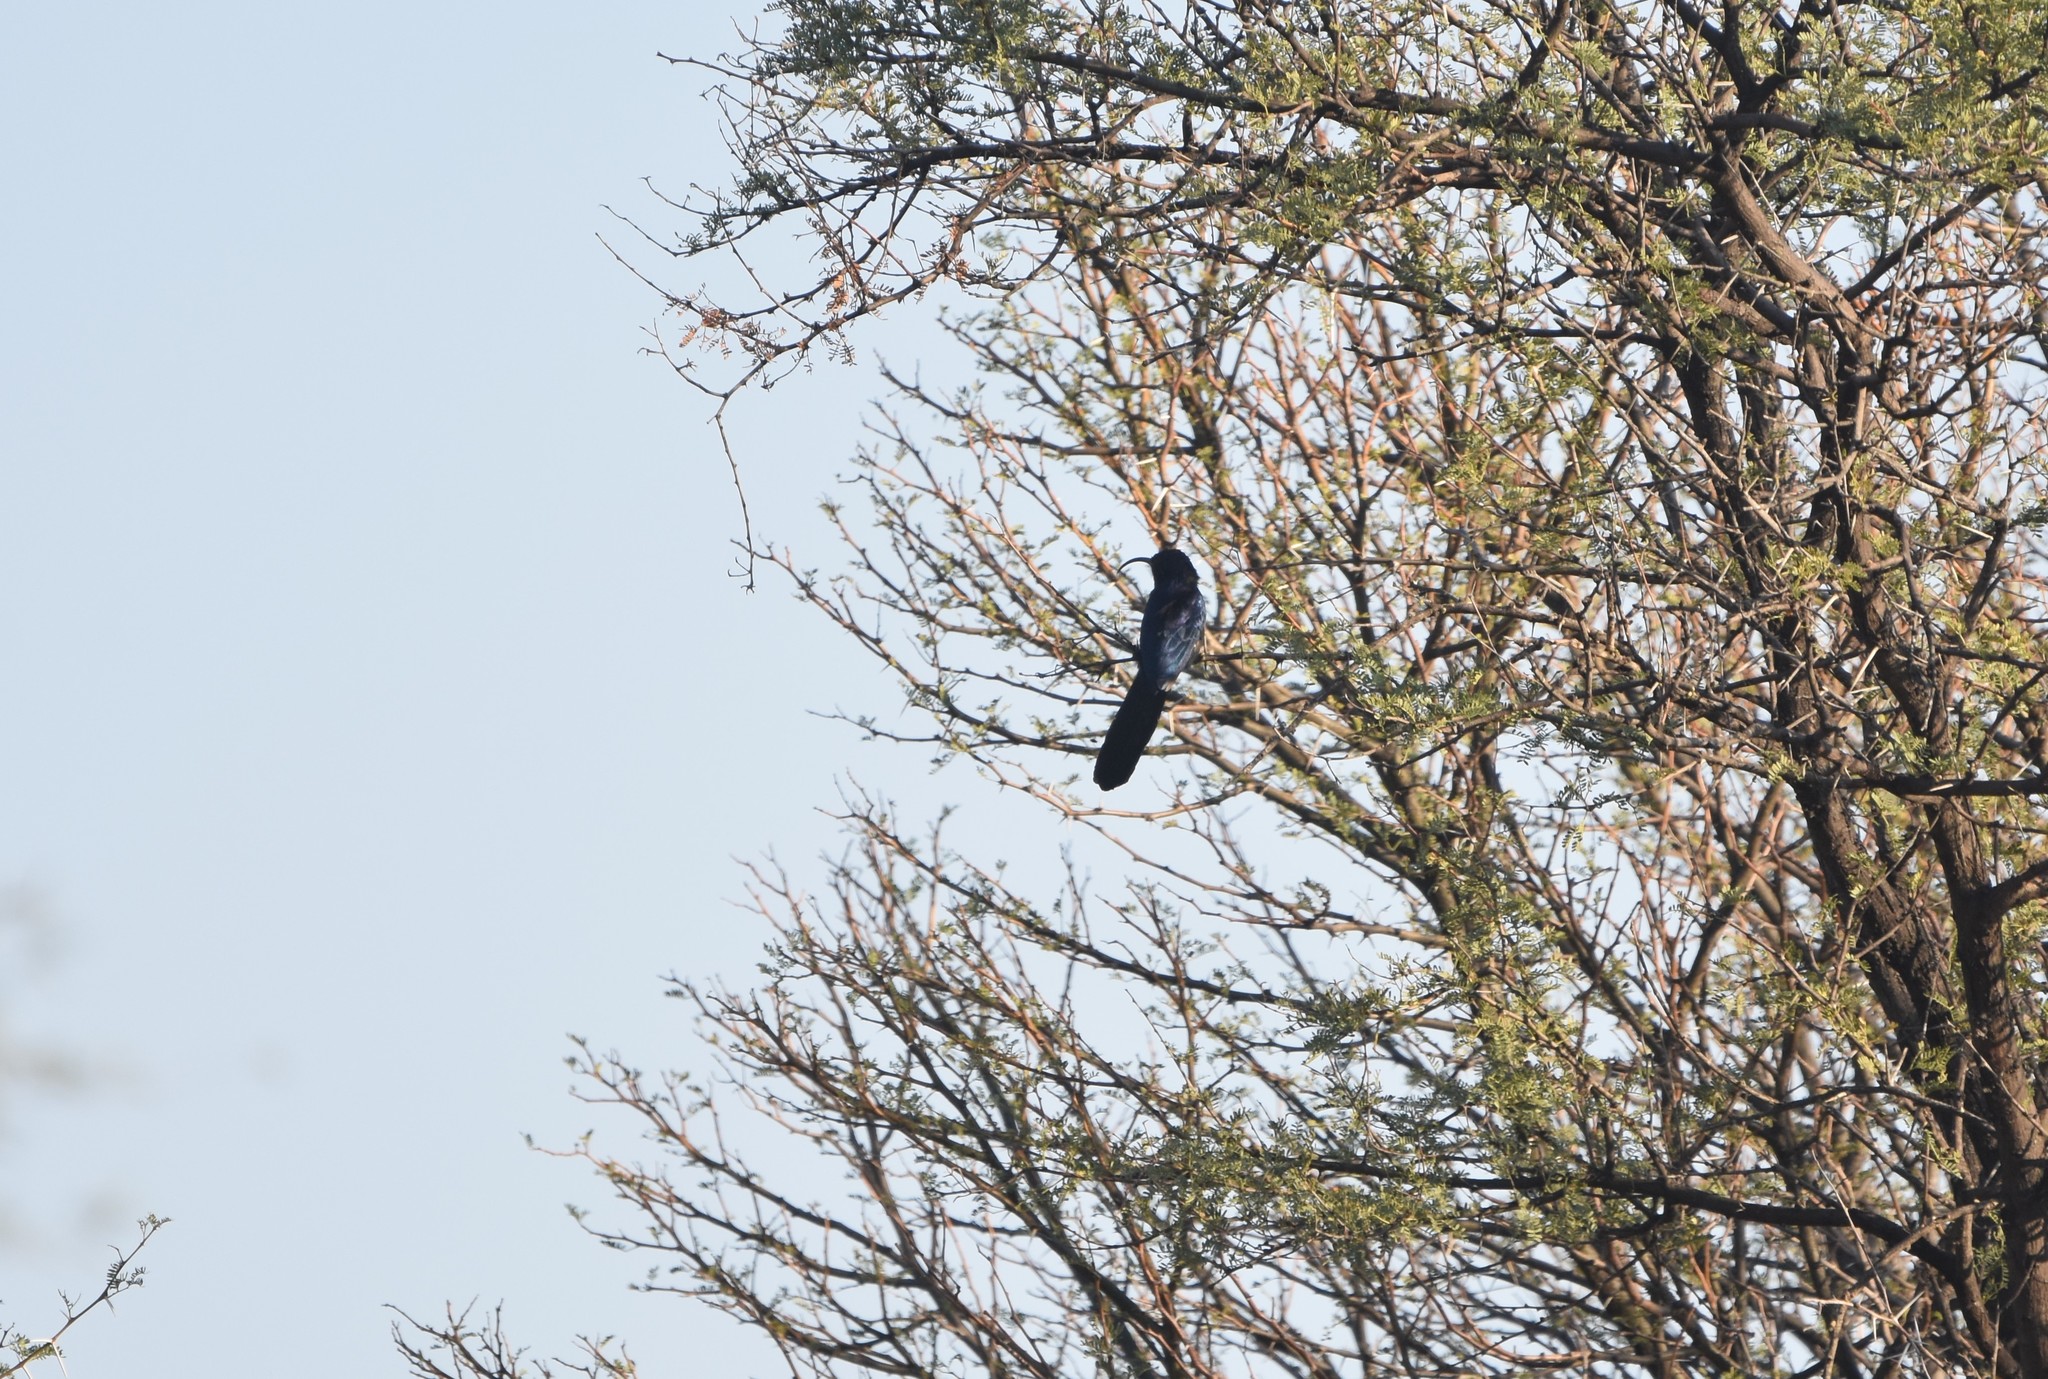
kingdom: Animalia
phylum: Chordata
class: Aves
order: Bucerotiformes
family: Phoeniculidae
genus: Rhinopomastus
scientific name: Rhinopomastus cyanomelas
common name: Common scimitarbill
